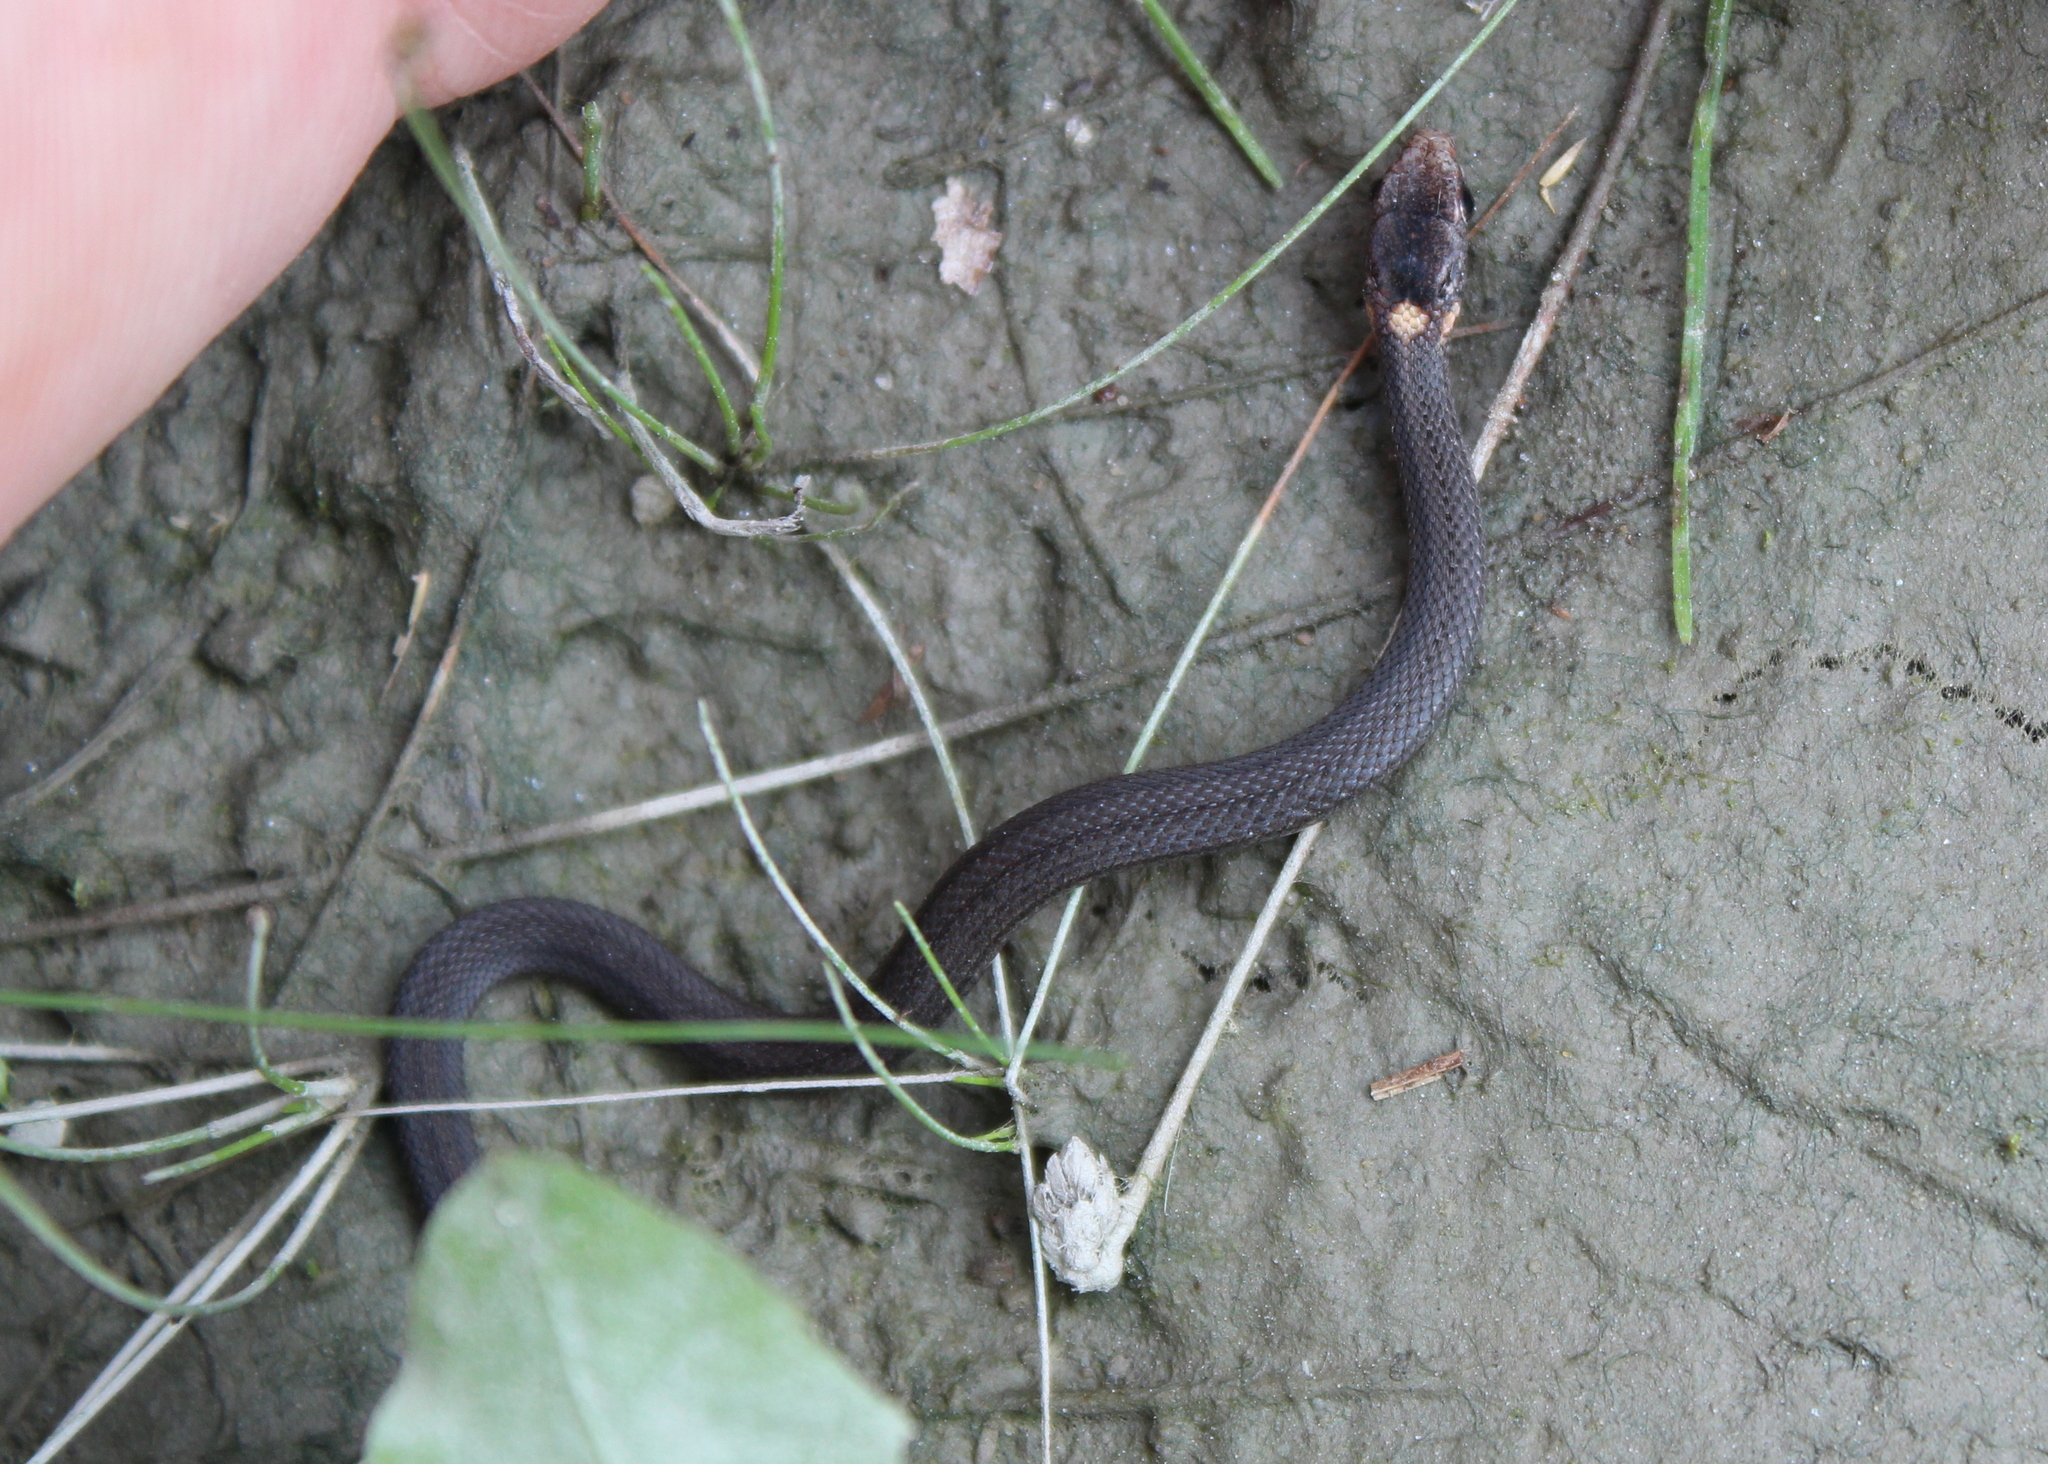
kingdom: Animalia
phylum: Chordata
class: Squamata
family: Colubridae
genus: Storeria
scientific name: Storeria occipitomaculata
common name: Redbelly snake
